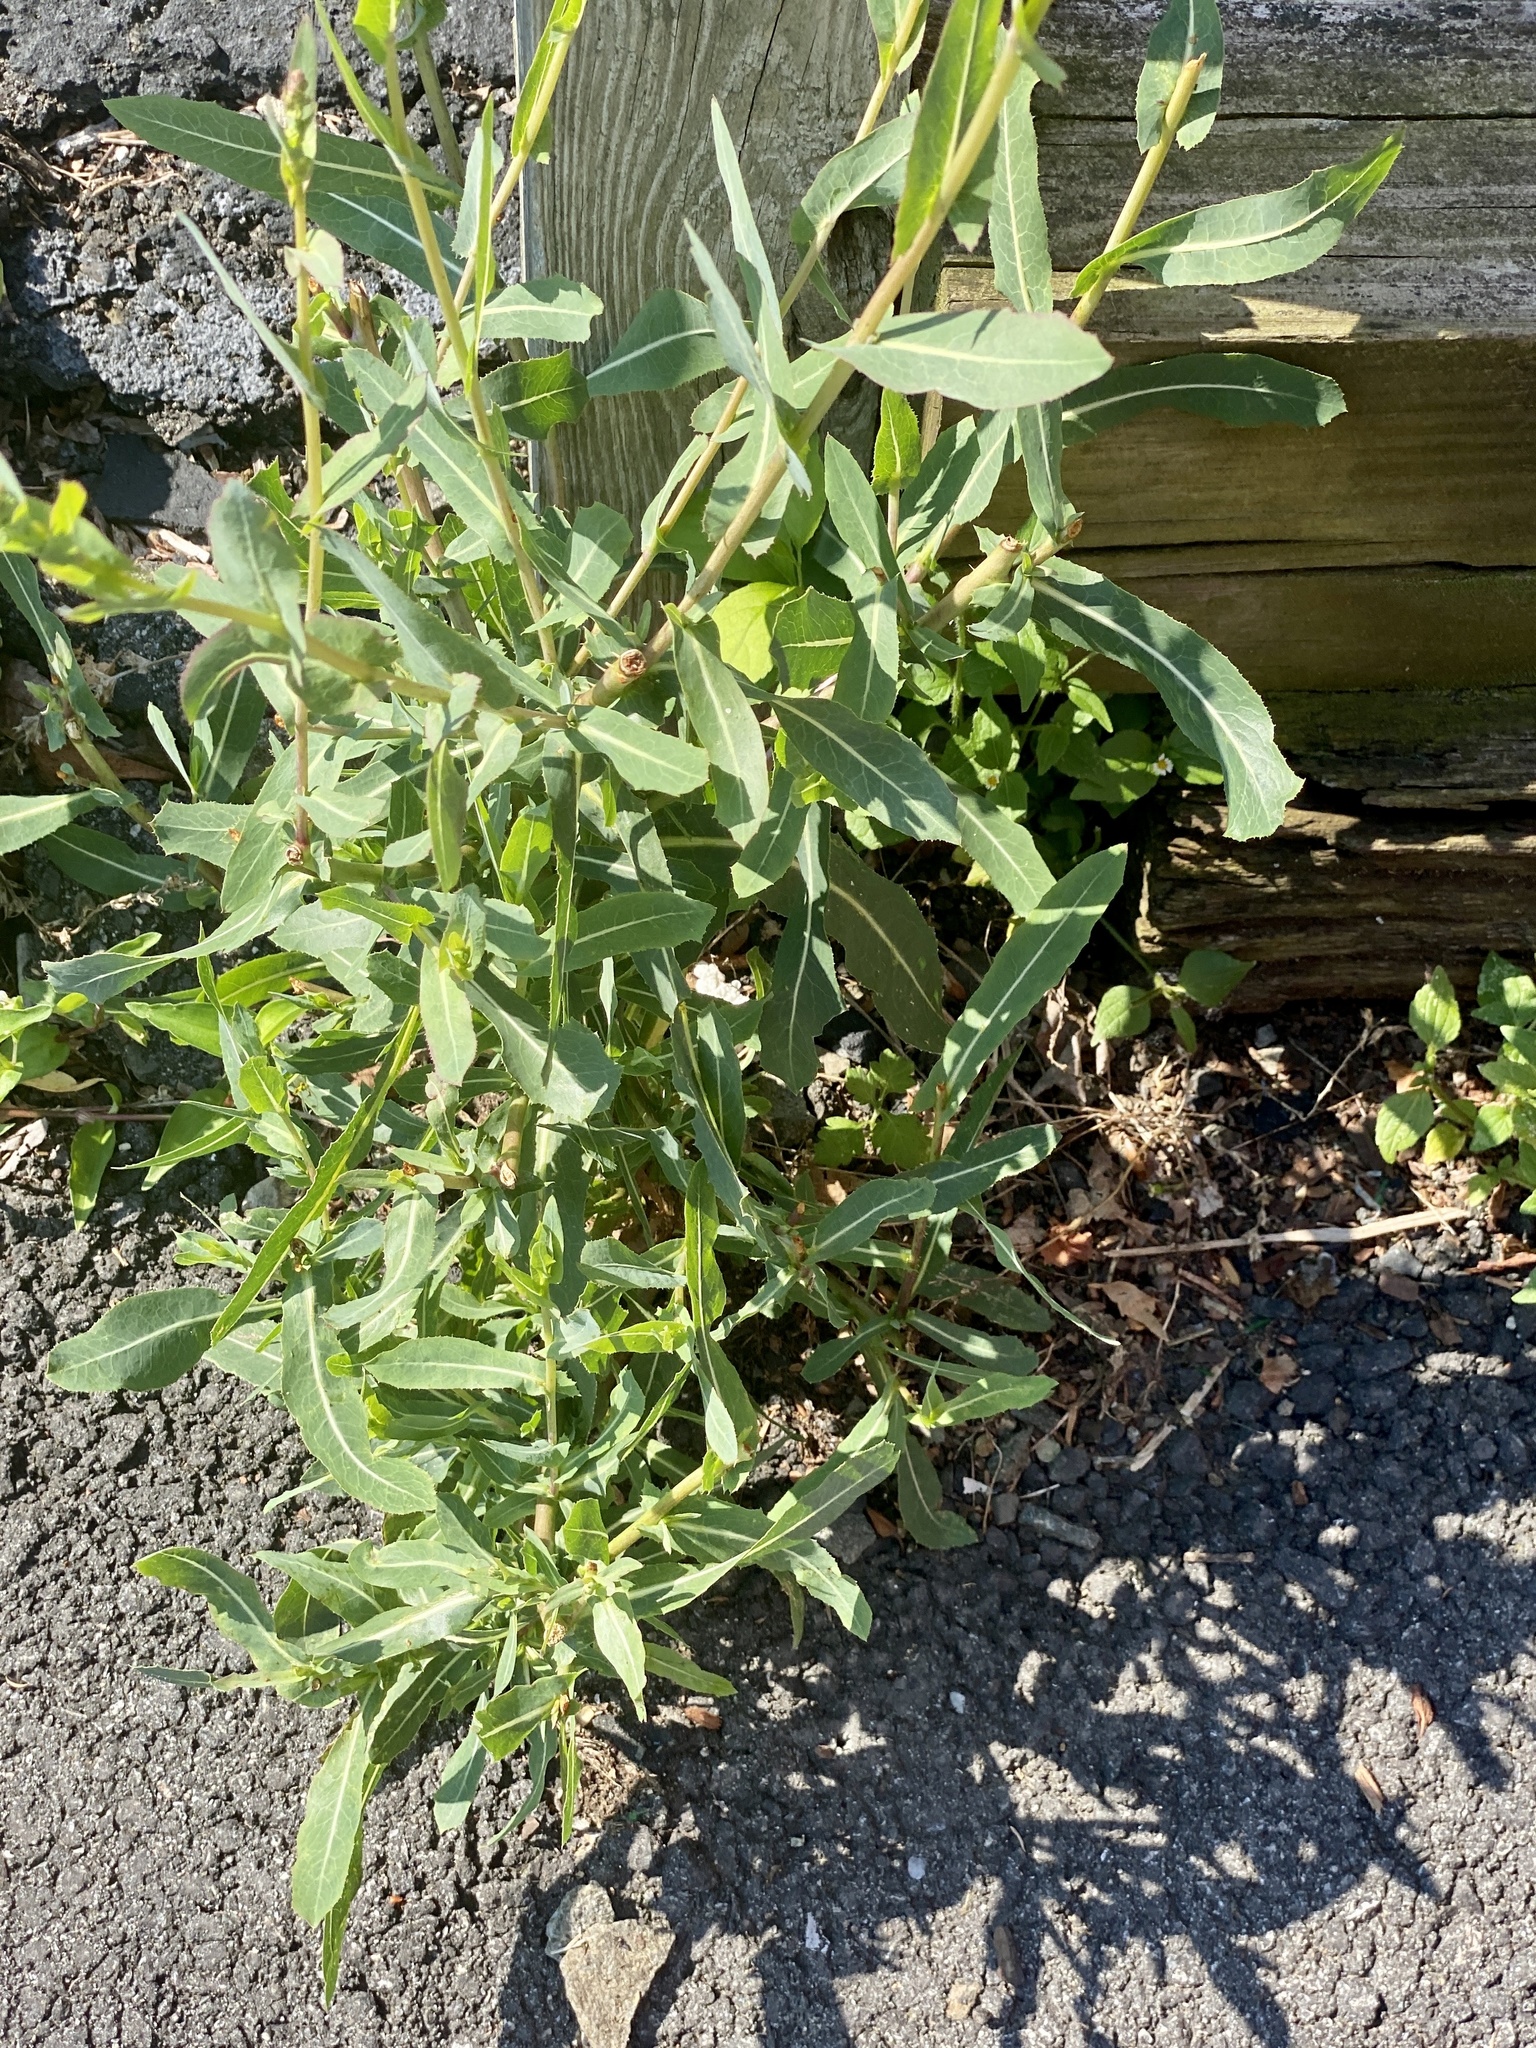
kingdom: Plantae
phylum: Tracheophyta
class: Magnoliopsida
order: Asterales
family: Asteraceae
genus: Lactuca
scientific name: Lactuca serriola
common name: Prickly lettuce
